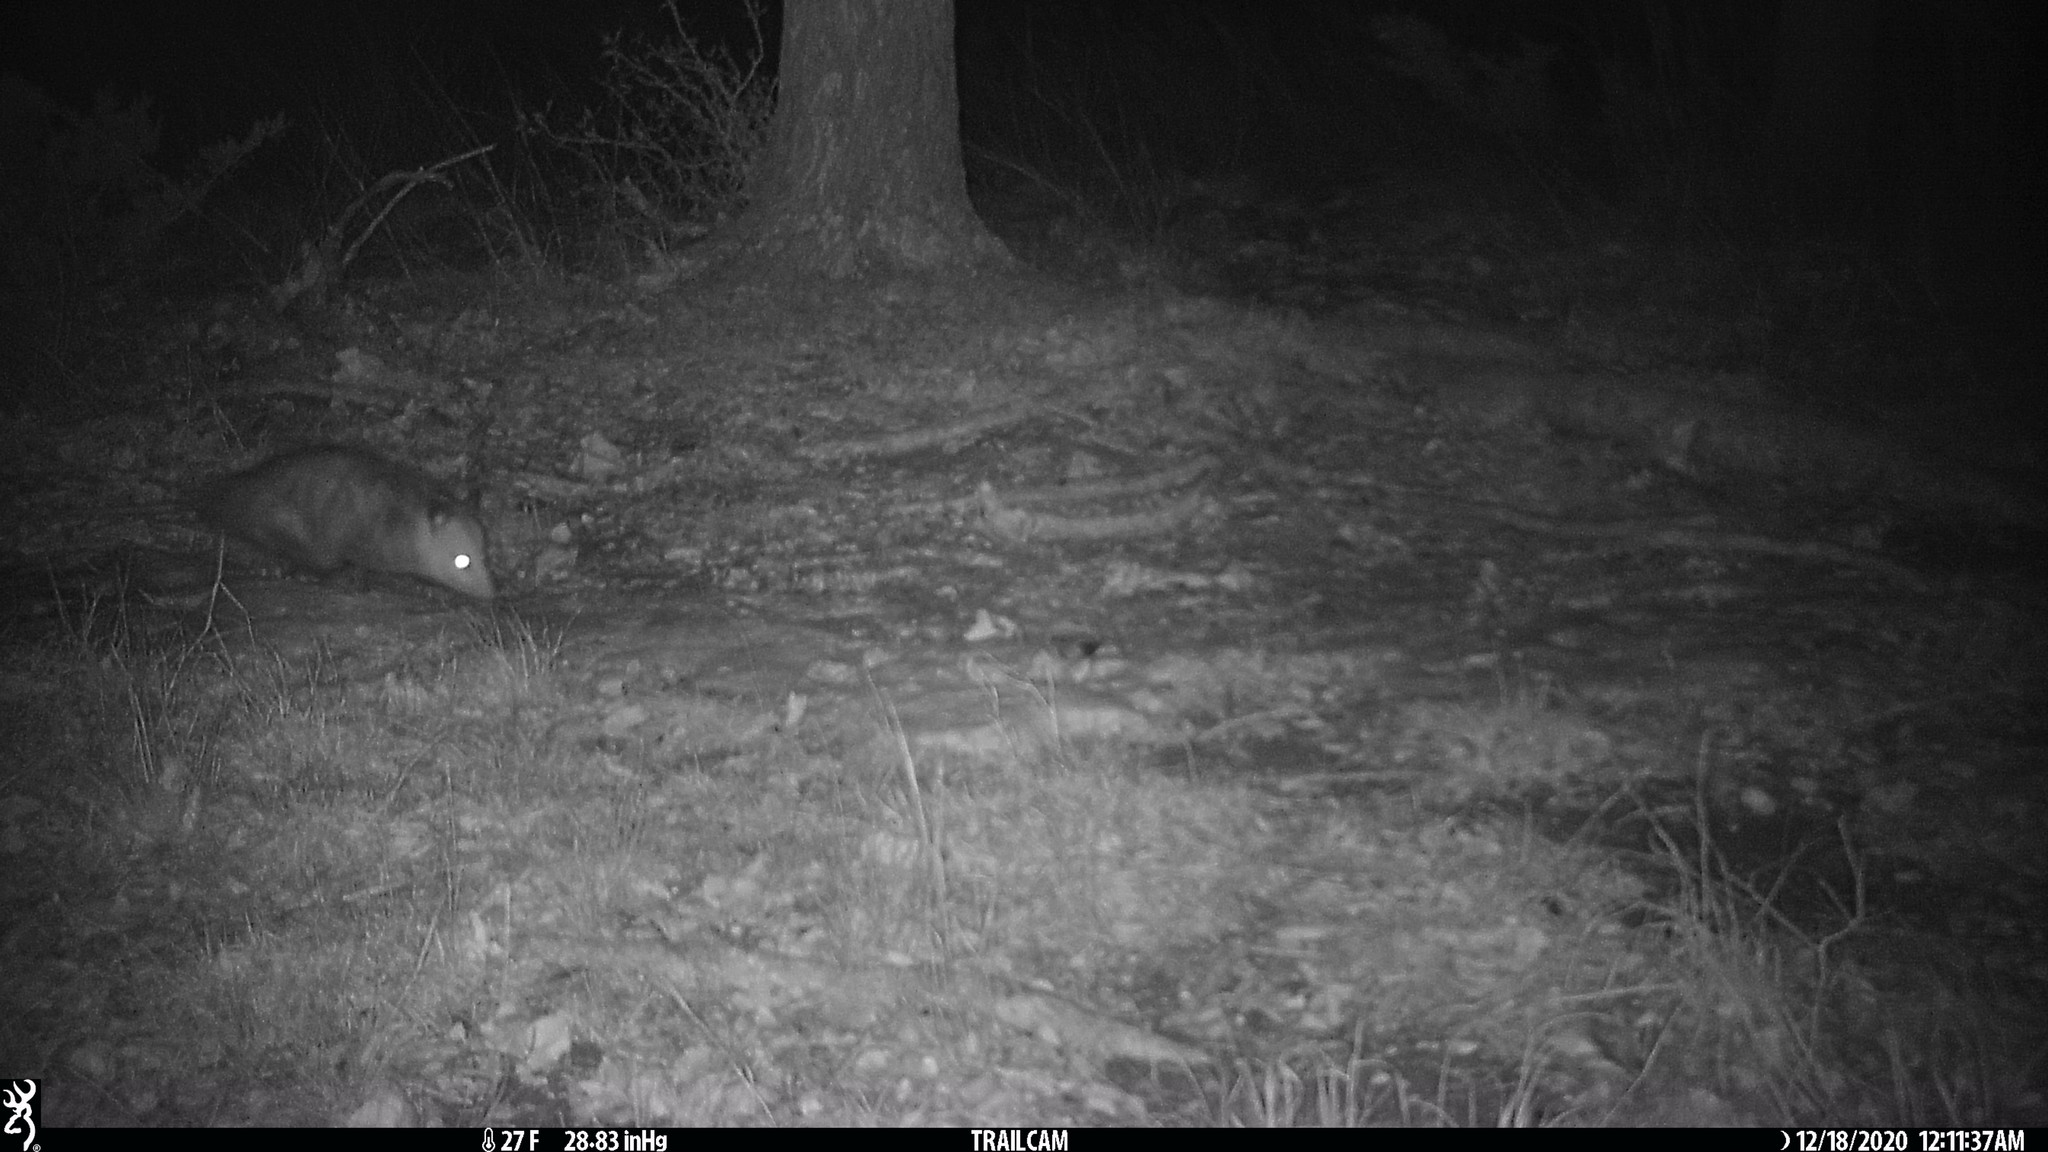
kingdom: Animalia
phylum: Chordata
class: Mammalia
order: Didelphimorphia
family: Didelphidae
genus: Didelphis
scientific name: Didelphis virginiana
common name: Virginia opossum
